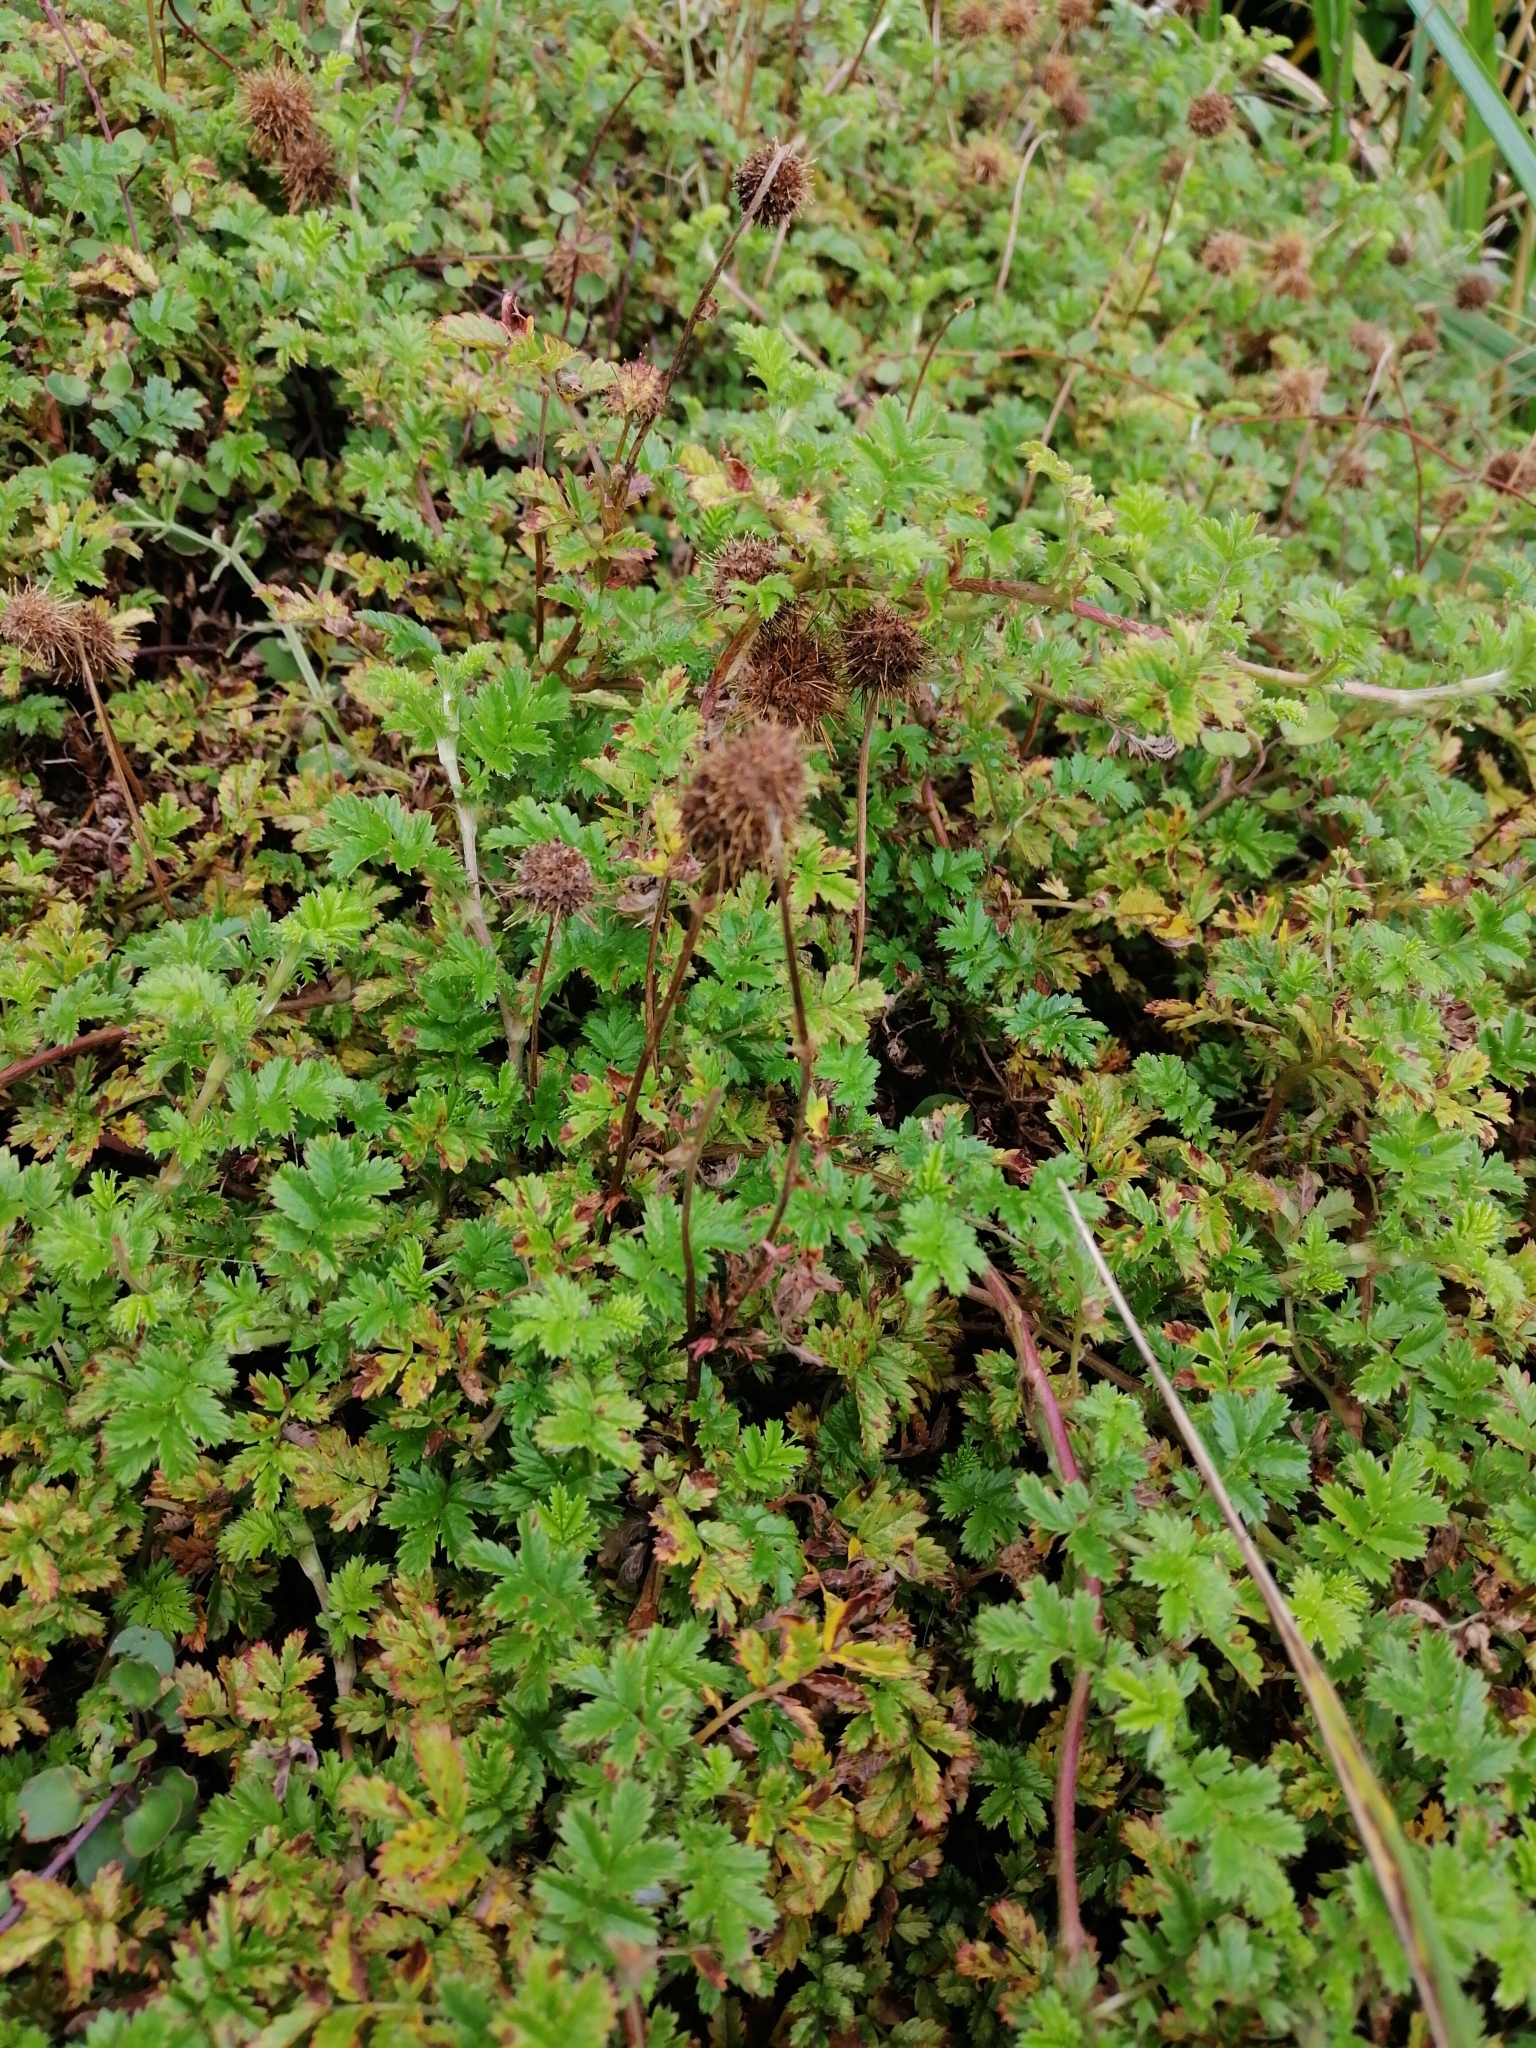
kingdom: Plantae
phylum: Tracheophyta
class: Magnoliopsida
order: Rosales
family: Rosaceae
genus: Acaena
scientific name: Acaena novae-zelandiae
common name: Pirri-pirri-bur
